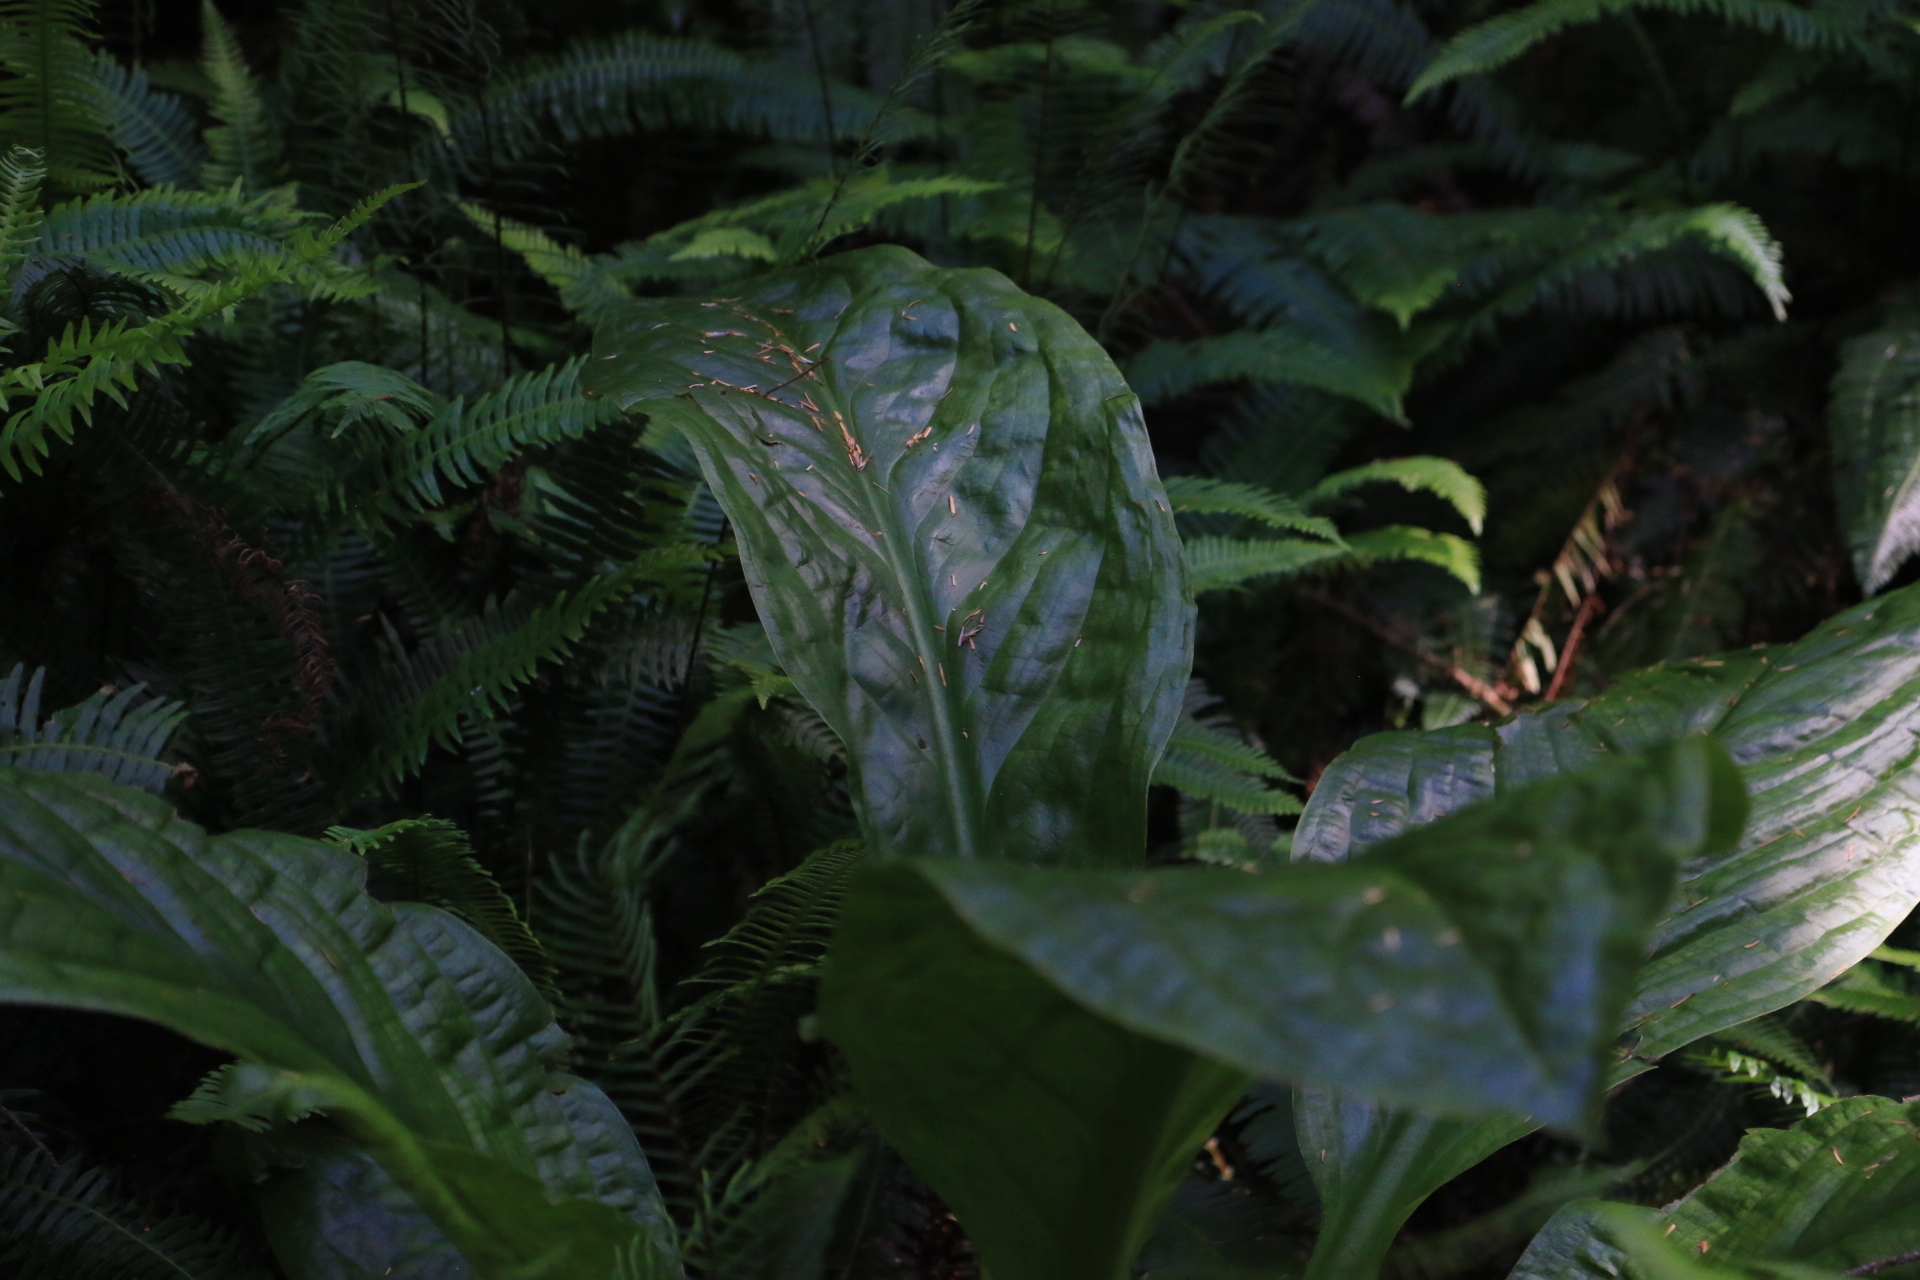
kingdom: Plantae
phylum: Tracheophyta
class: Liliopsida
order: Alismatales
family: Araceae
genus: Lysichiton
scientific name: Lysichiton americanus
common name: American skunk cabbage
